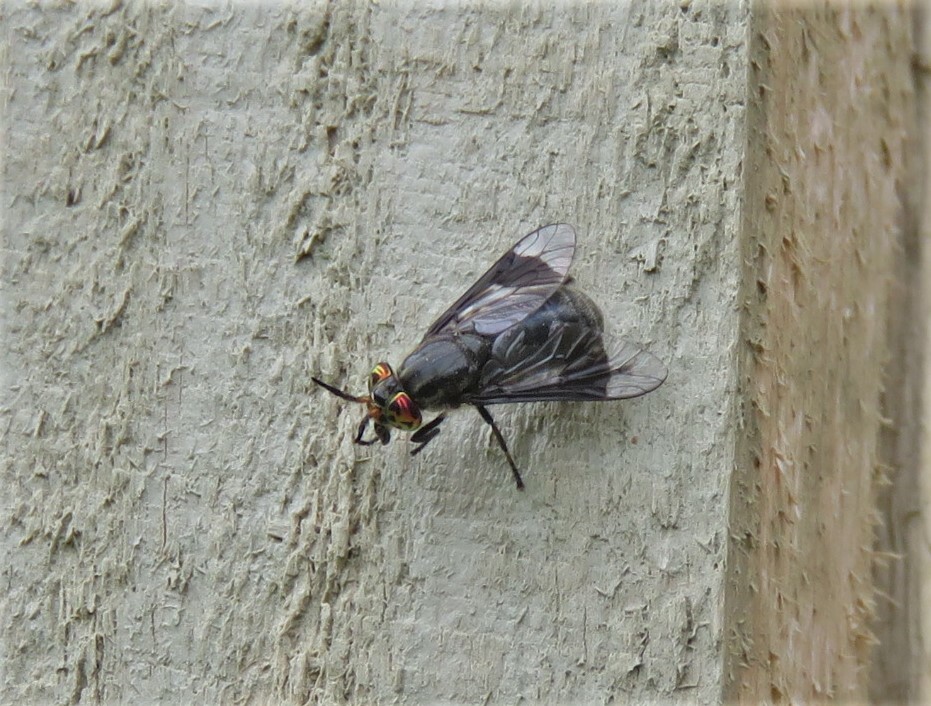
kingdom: Animalia
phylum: Arthropoda
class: Insecta
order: Diptera
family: Tabanidae
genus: Chrysops
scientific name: Chrysops niger
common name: Black deer fly
